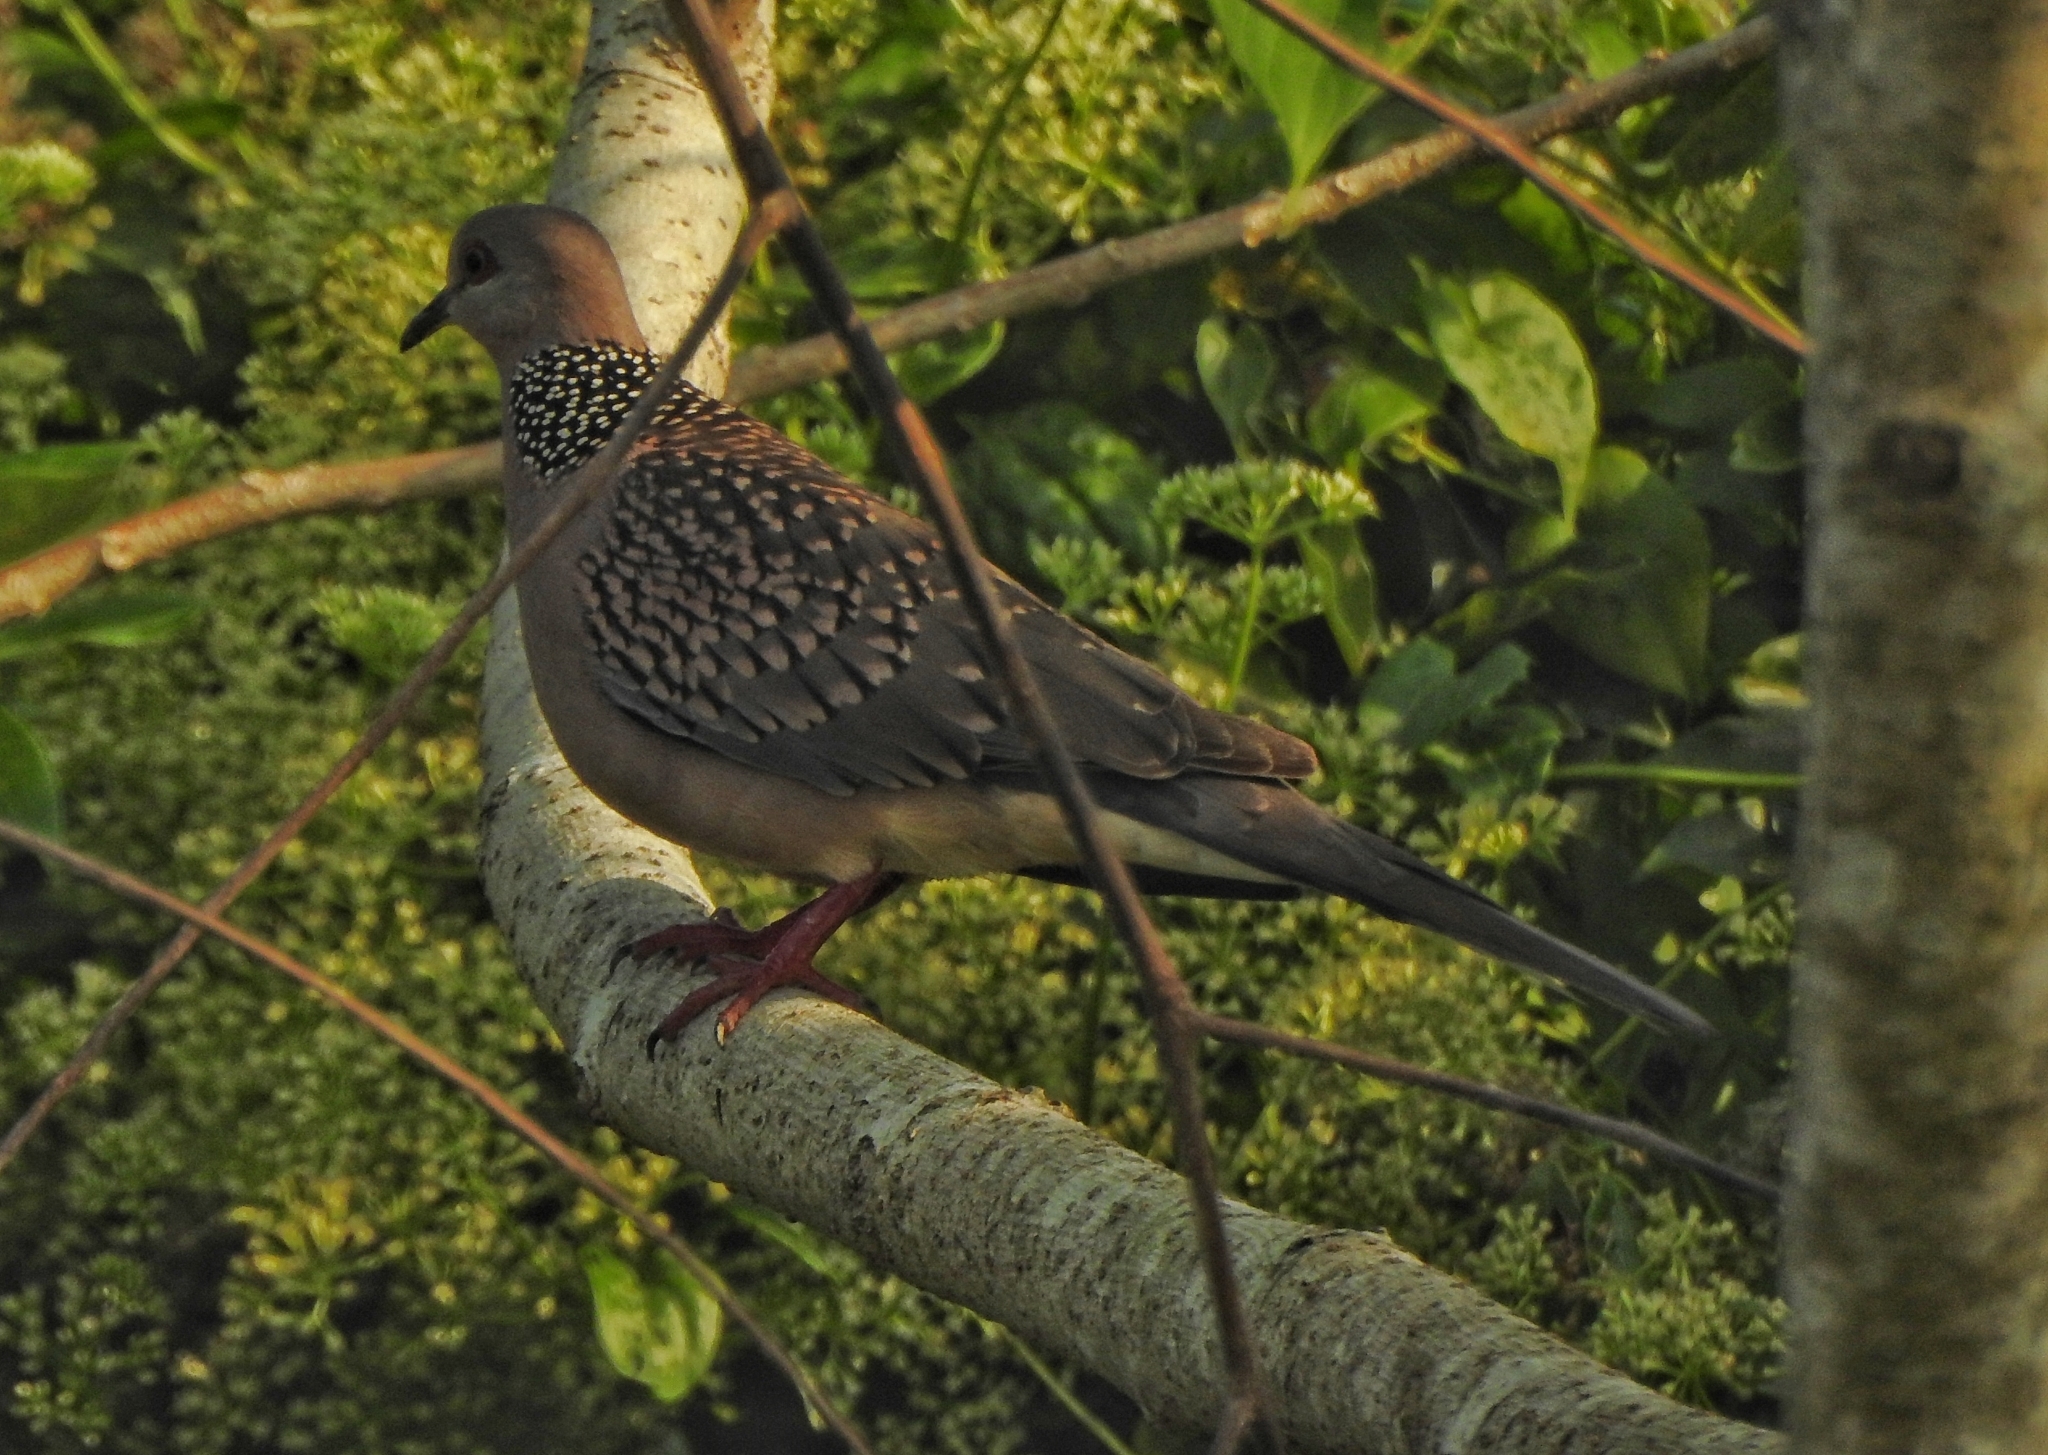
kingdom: Animalia
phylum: Chordata
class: Aves
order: Columbiformes
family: Columbidae
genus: Spilopelia
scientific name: Spilopelia chinensis
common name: Spotted dove
